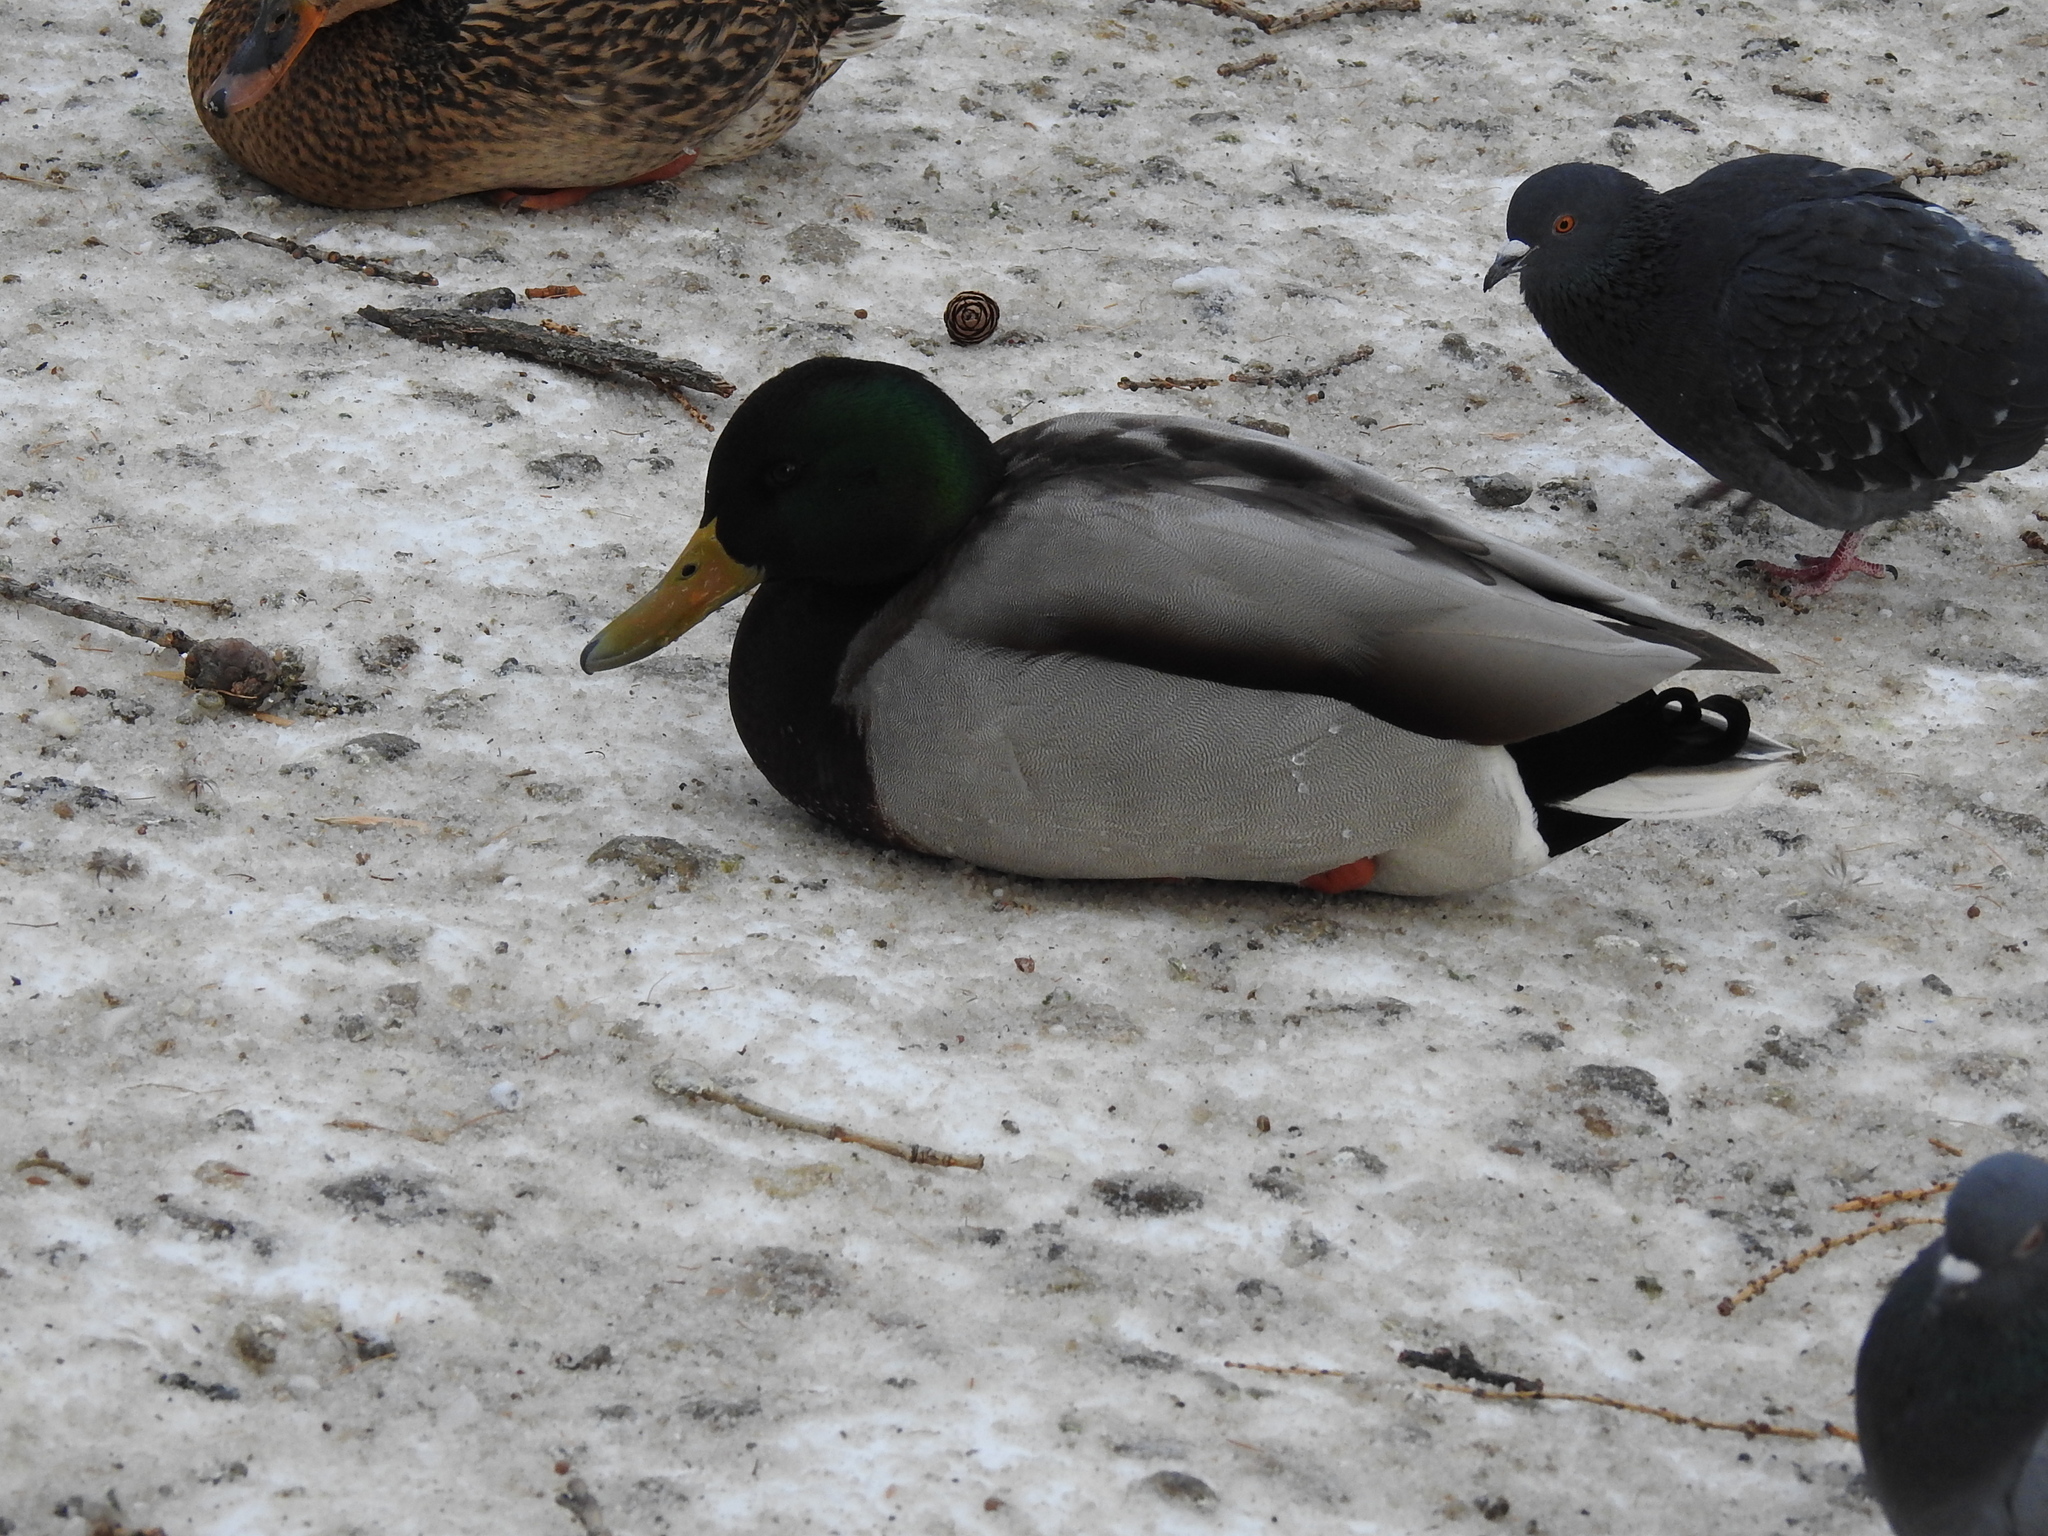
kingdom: Animalia
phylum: Chordata
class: Aves
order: Anseriformes
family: Anatidae
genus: Anas
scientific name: Anas platyrhynchos
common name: Mallard
